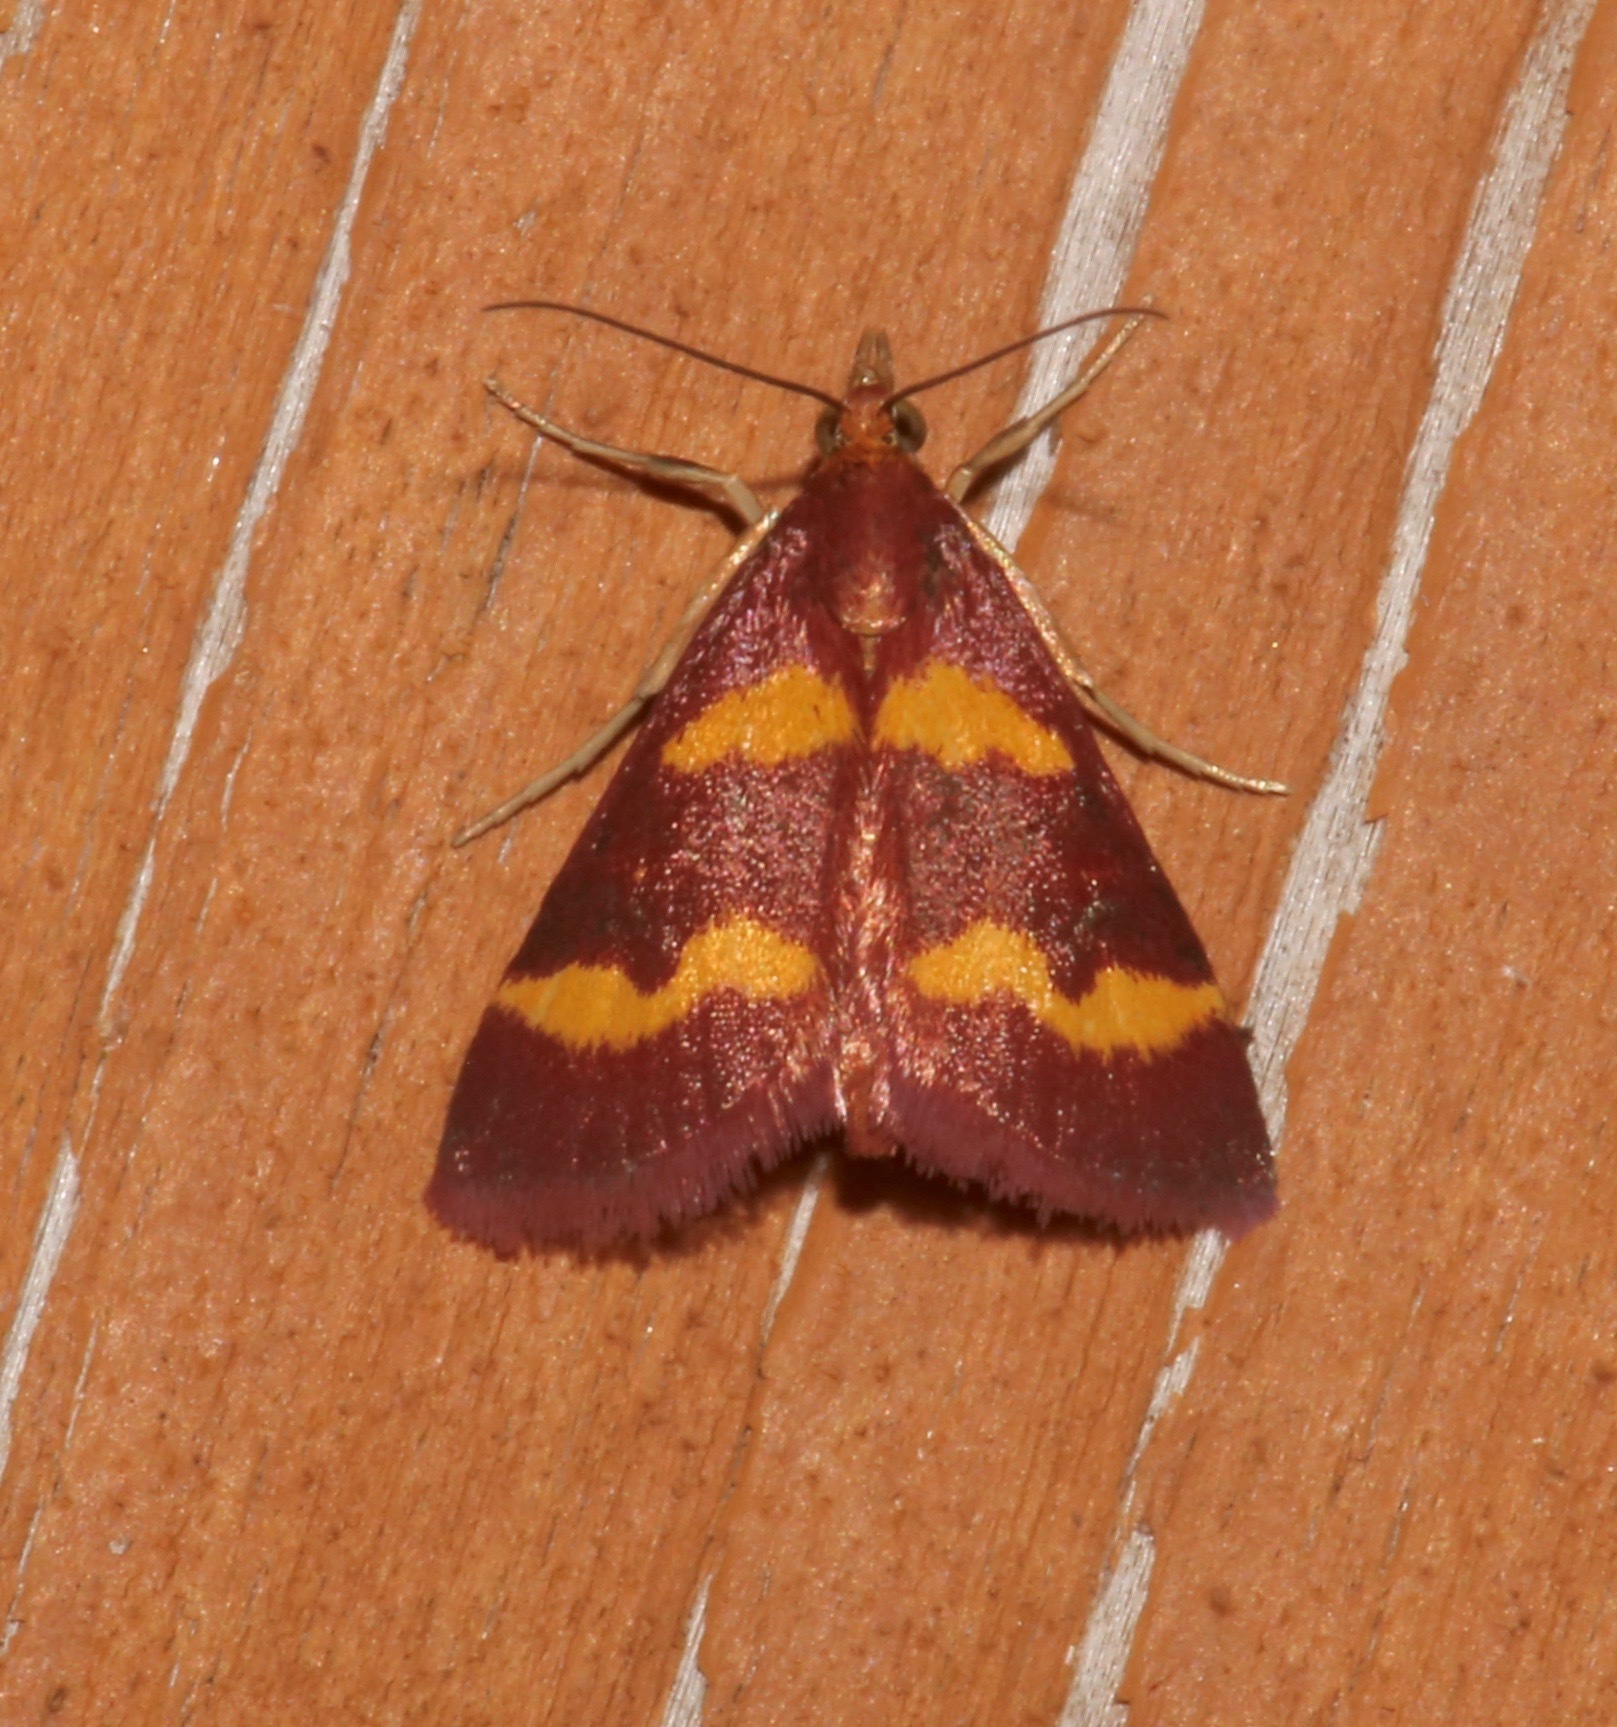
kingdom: Animalia
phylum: Arthropoda
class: Insecta
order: Lepidoptera
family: Crambidae
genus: Pyrausta
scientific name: Pyrausta tyralis
